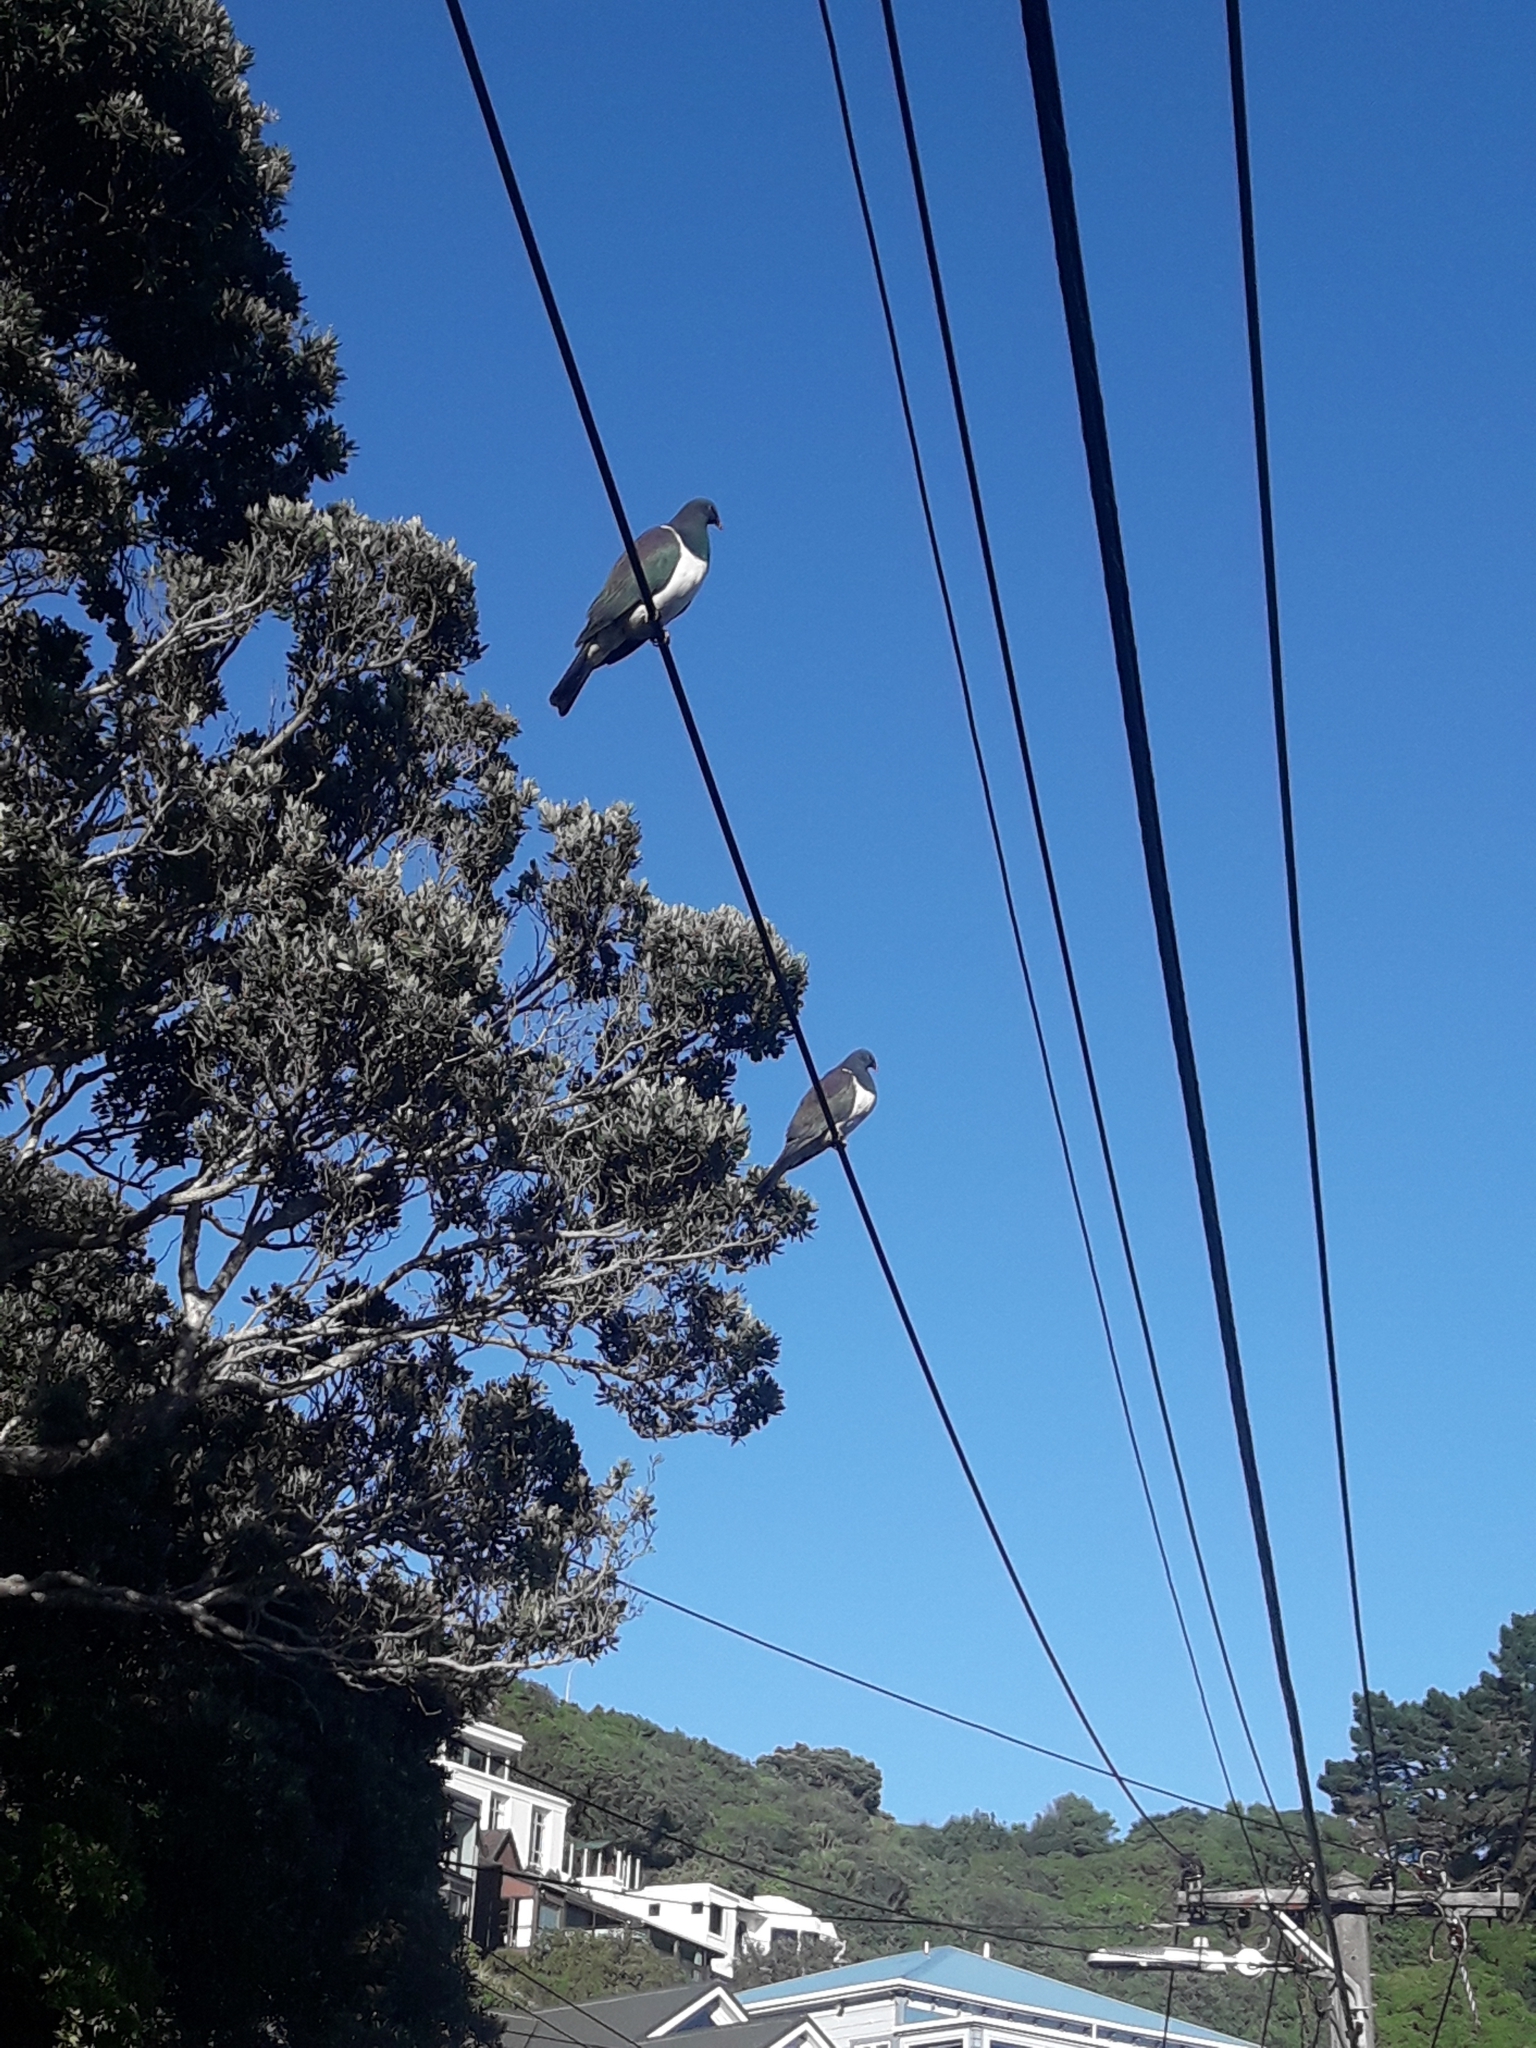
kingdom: Animalia
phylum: Chordata
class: Aves
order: Columbiformes
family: Columbidae
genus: Hemiphaga
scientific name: Hemiphaga novaeseelandiae
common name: New zealand pigeon
